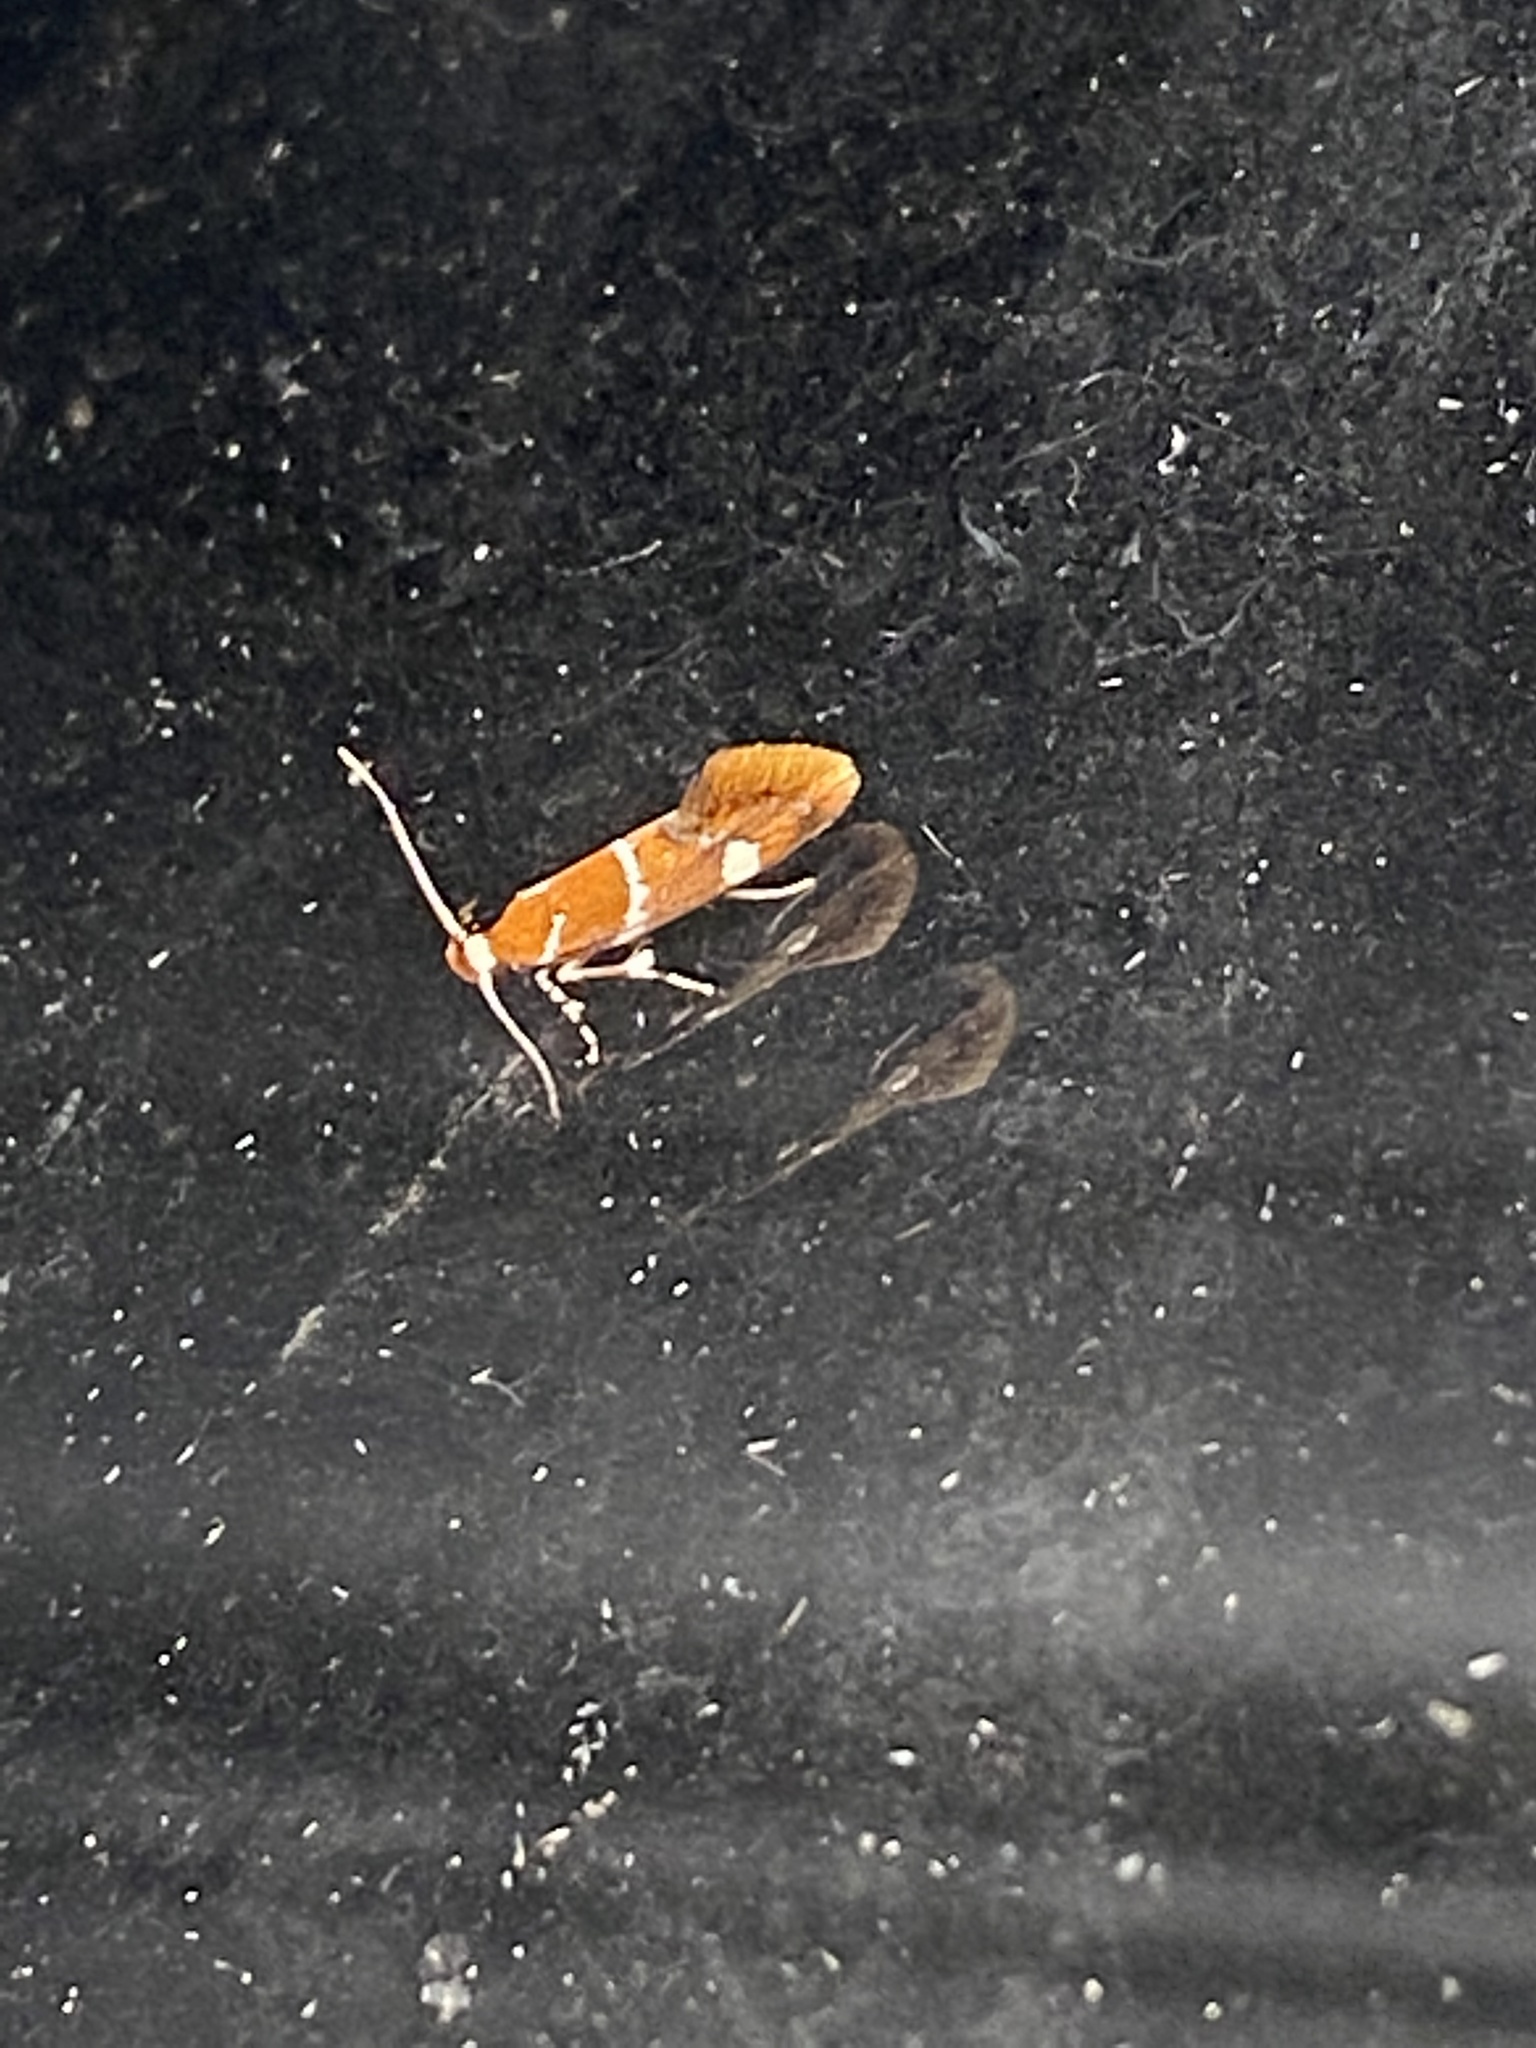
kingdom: Animalia
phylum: Arthropoda
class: Insecta
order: Lepidoptera
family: Oecophoridae
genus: Promalactis
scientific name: Promalactis suzukiella
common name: Moth
